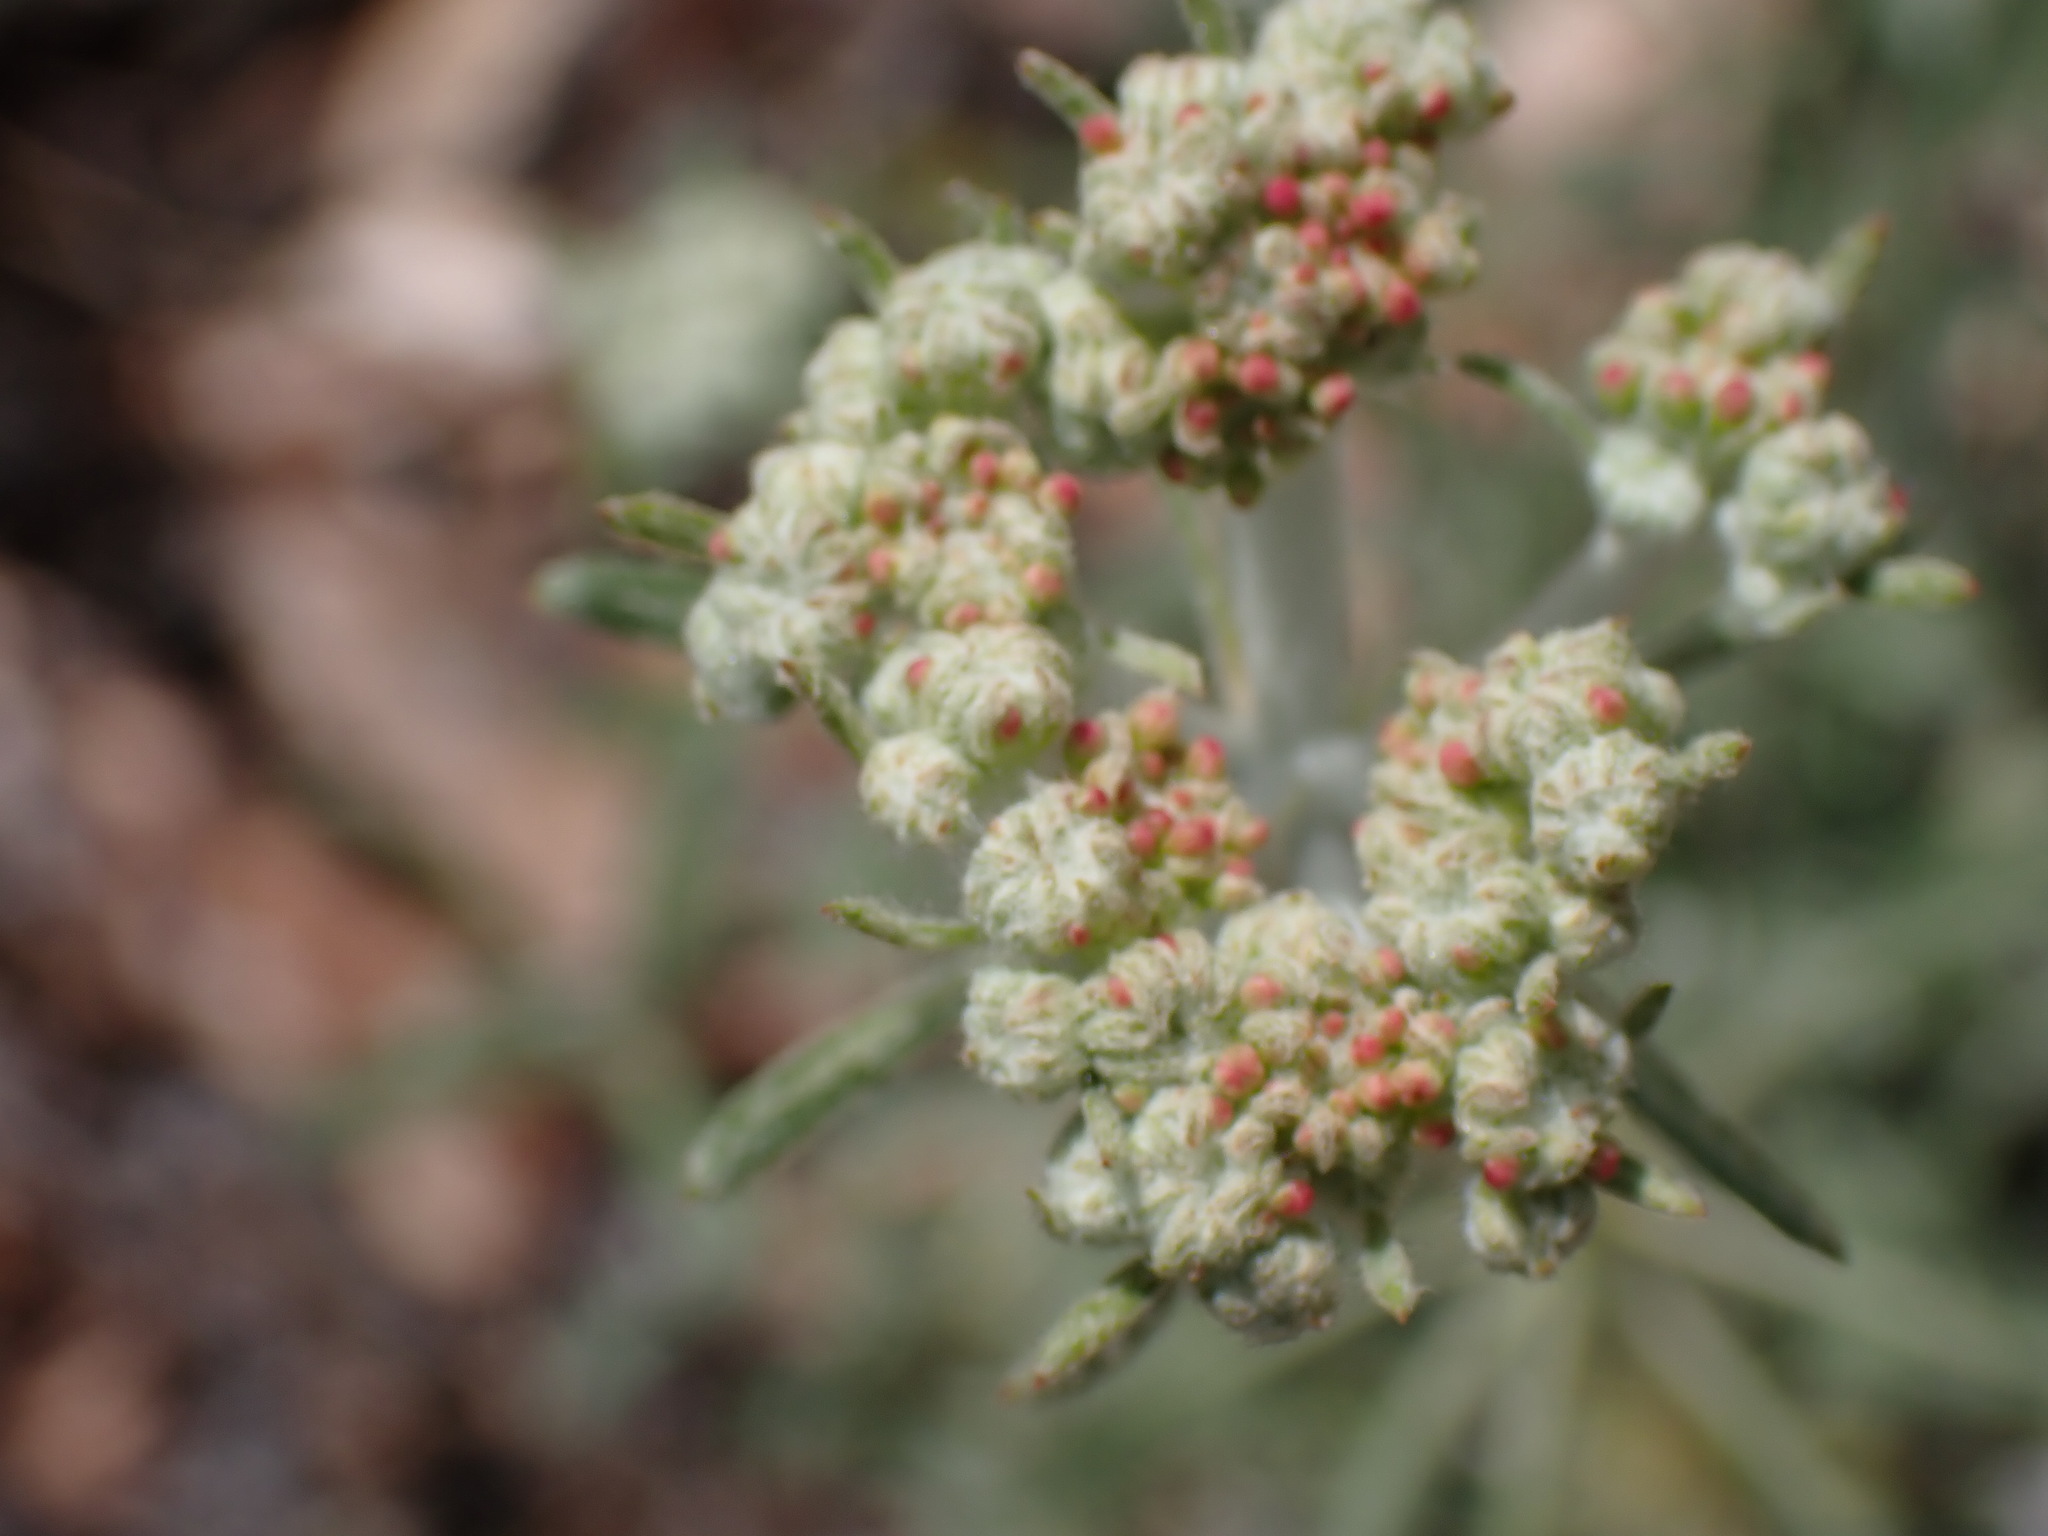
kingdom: Plantae
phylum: Tracheophyta
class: Magnoliopsida
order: Caryophyllales
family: Polygonaceae
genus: Eriogonum
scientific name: Eriogonum heracleoides
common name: Wyeth's buckwheat
